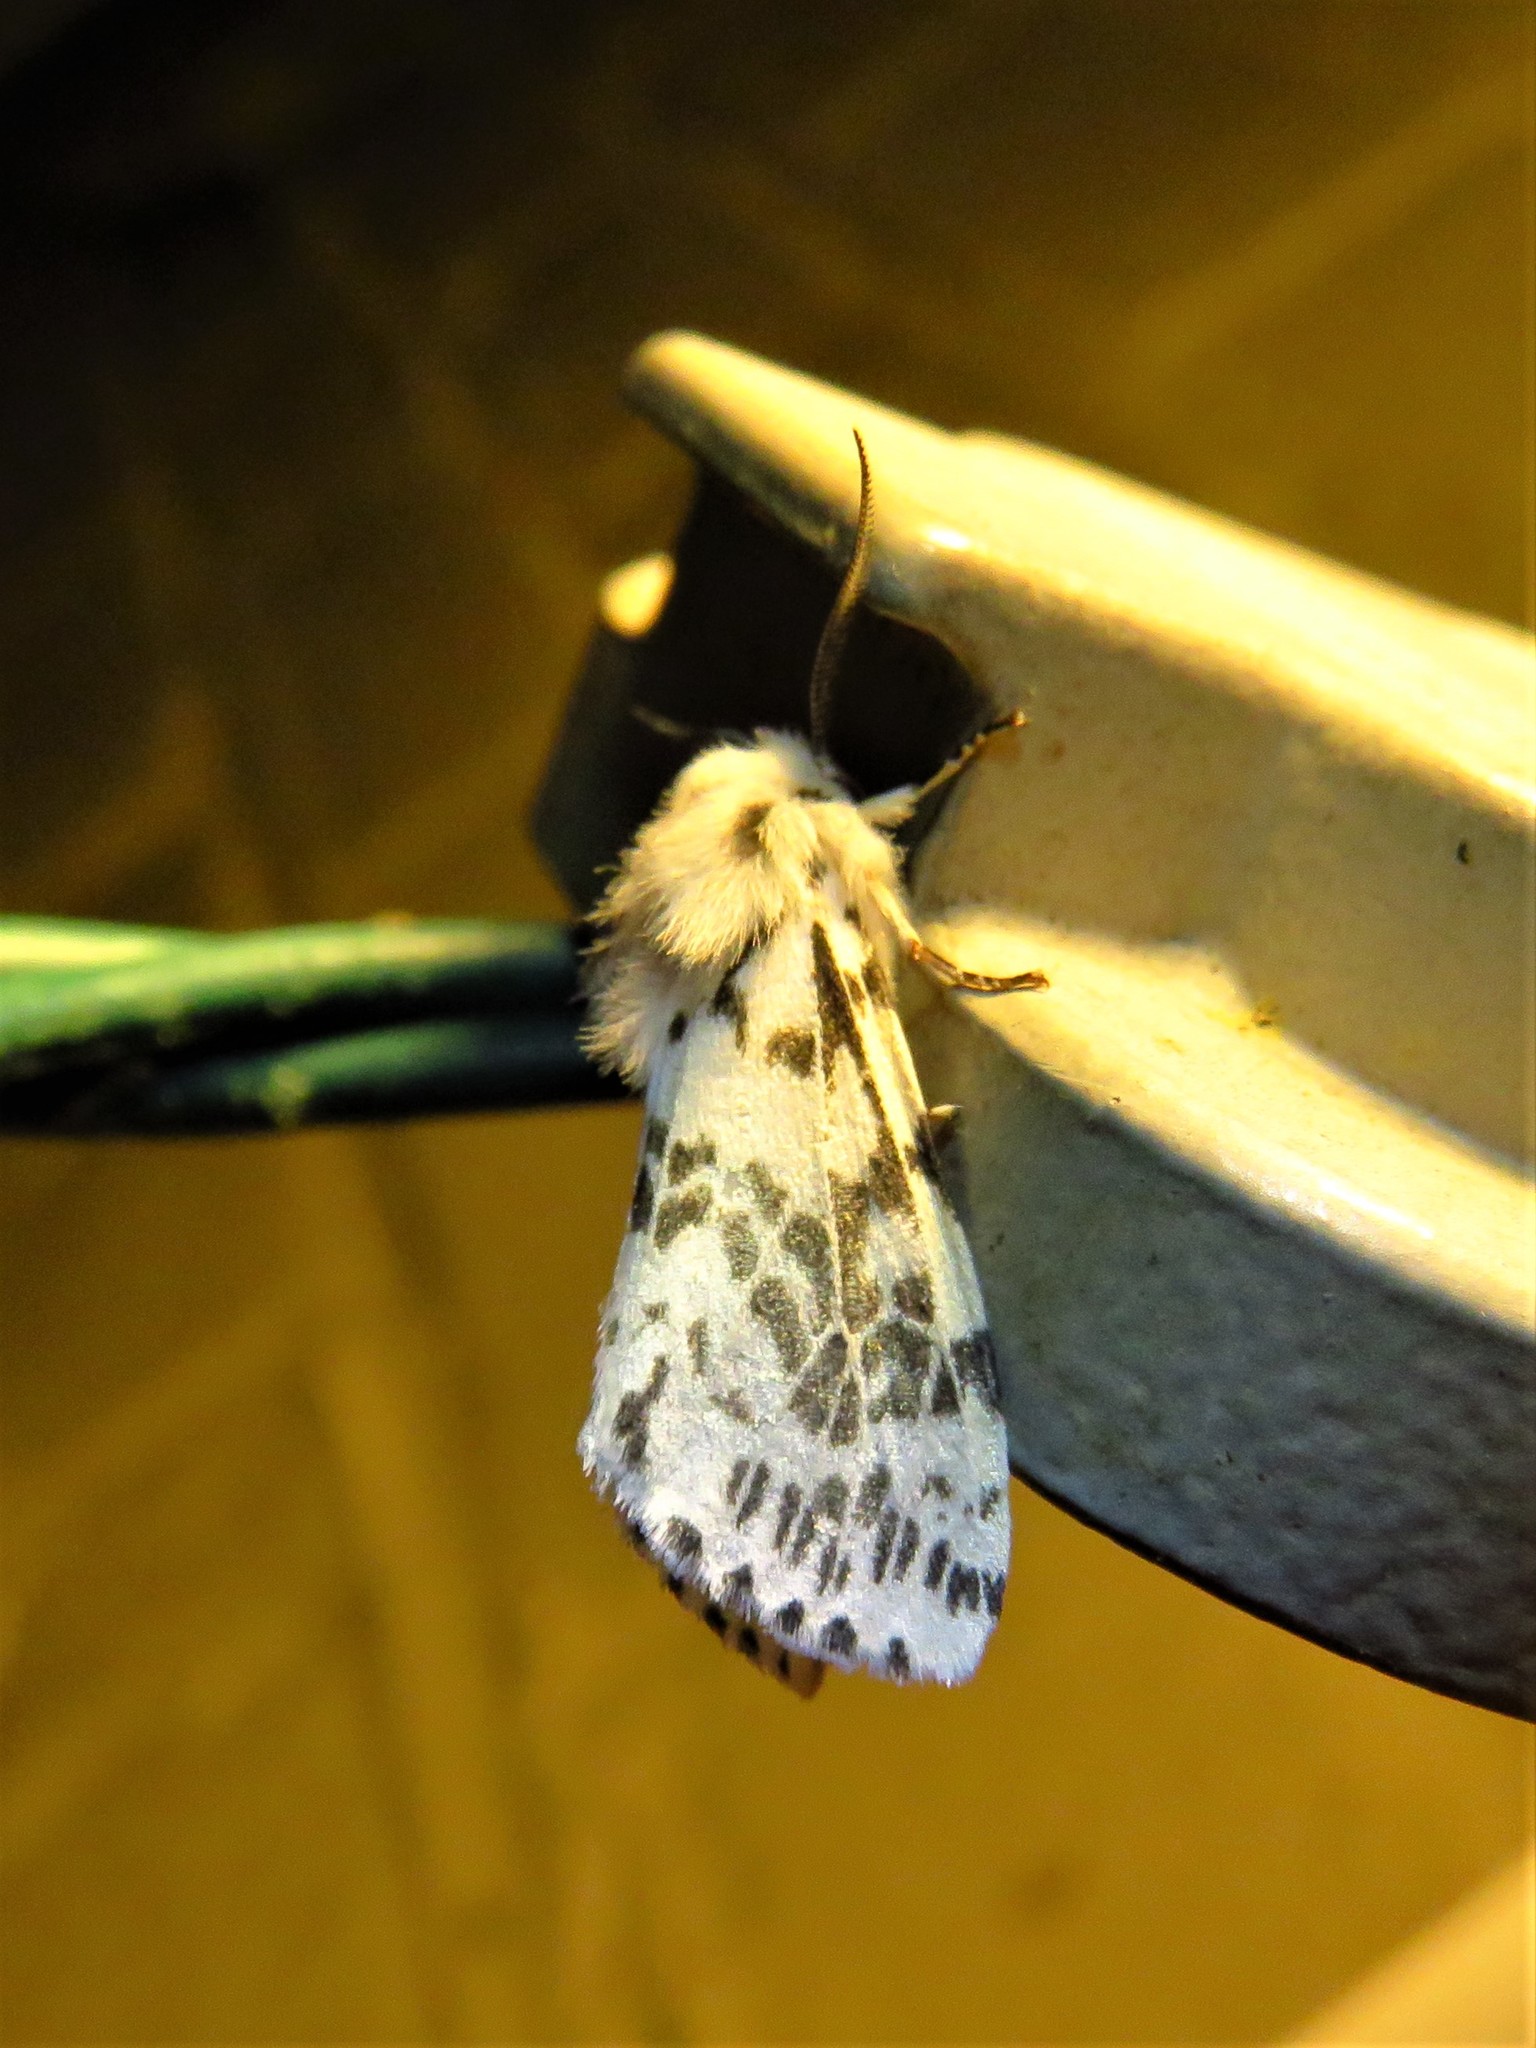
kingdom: Animalia
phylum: Arthropoda
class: Insecta
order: Lepidoptera
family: Erebidae
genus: Hyphantria
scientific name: Hyphantria cunea
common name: American white moth
